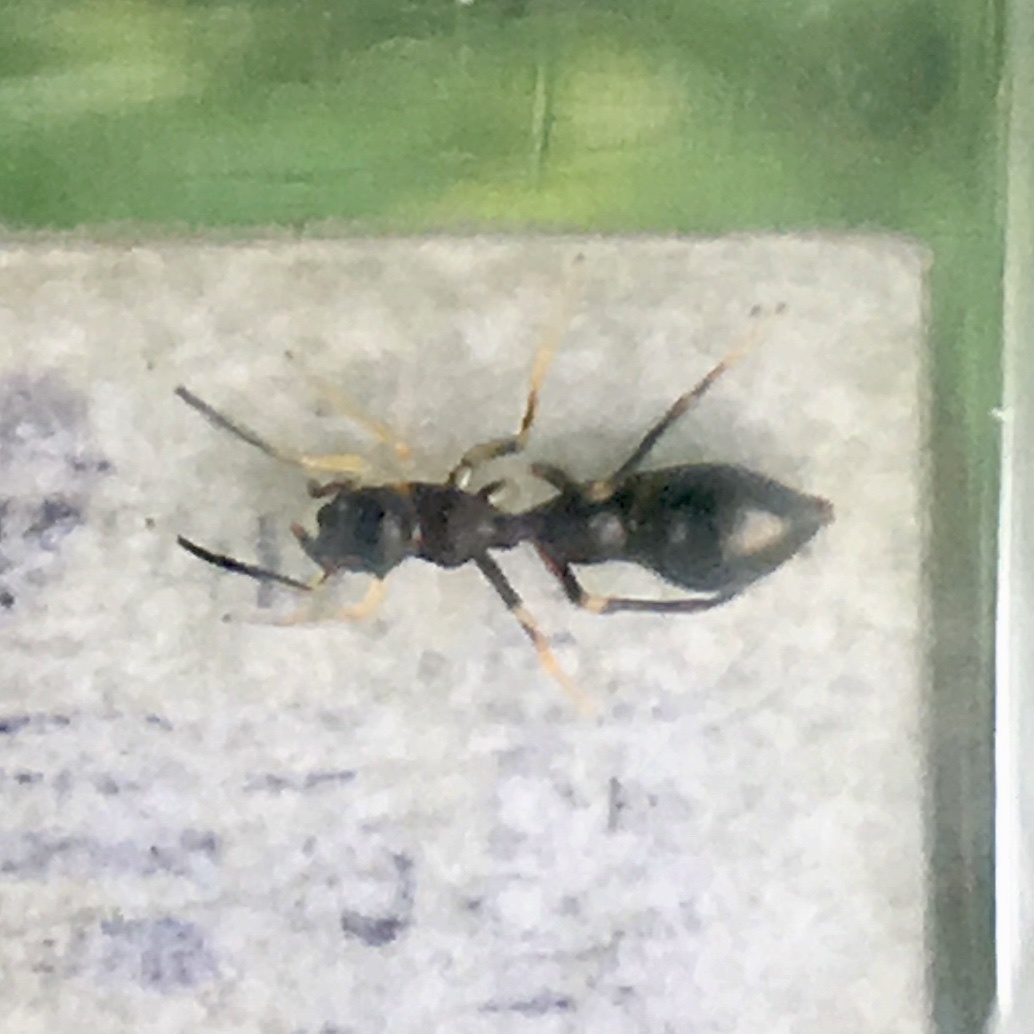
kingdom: Animalia
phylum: Arthropoda
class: Arachnida
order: Araneae
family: Salticidae
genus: Synemosyna
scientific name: Synemosyna formica
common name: Slender ant-mimic jumping spider
